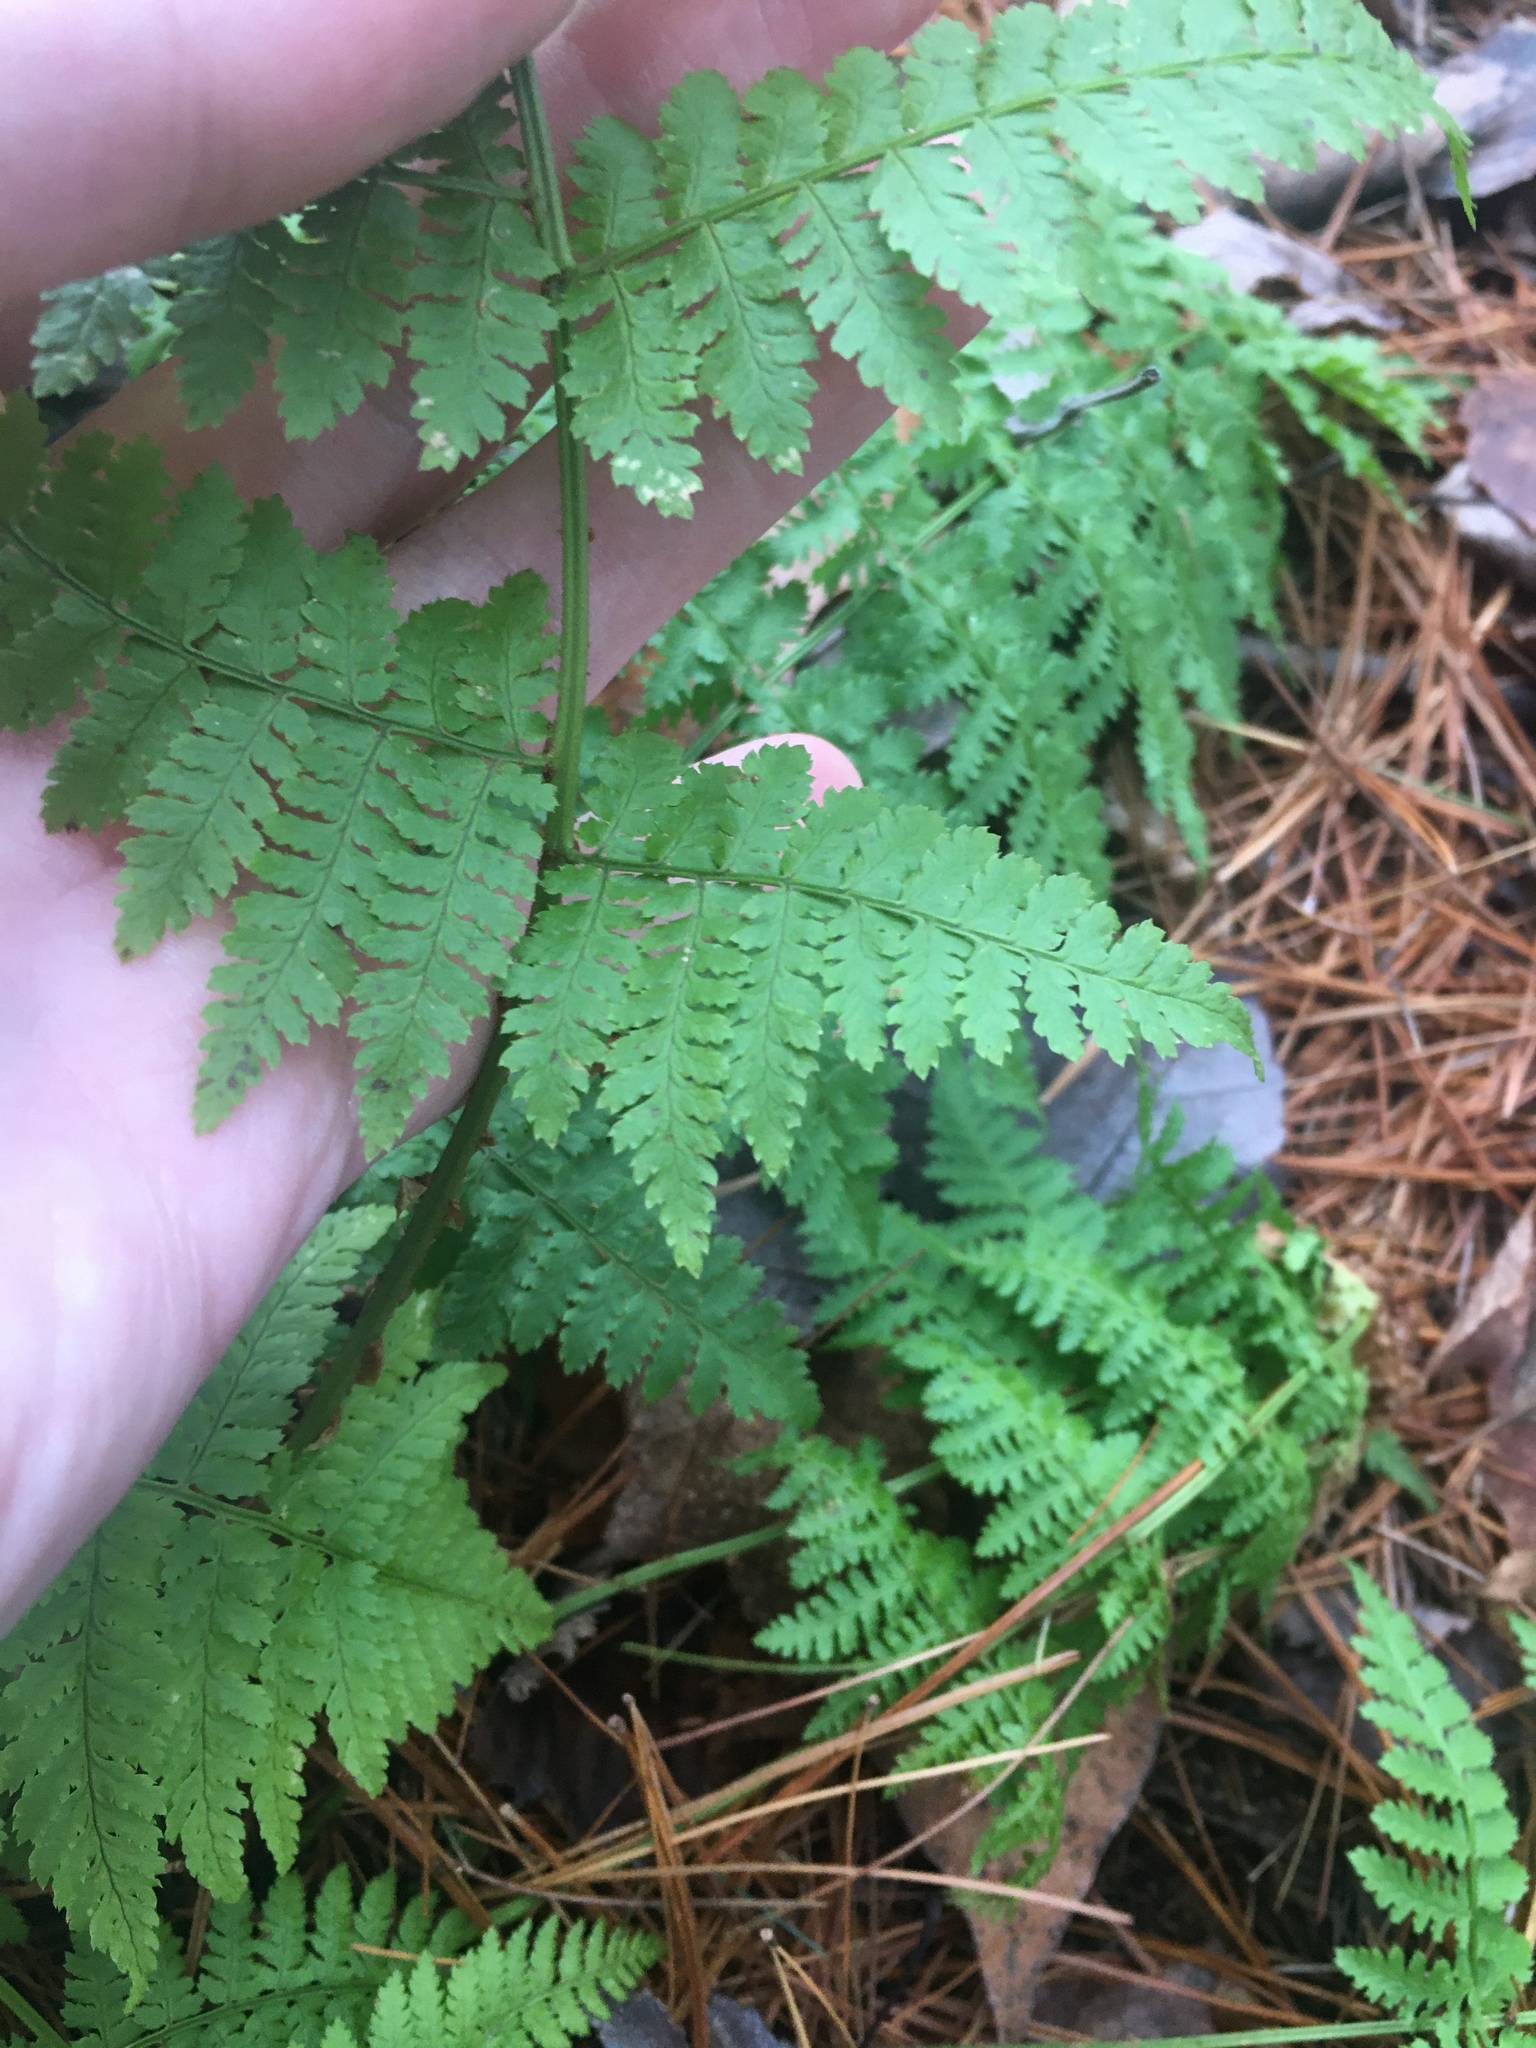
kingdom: Plantae
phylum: Tracheophyta
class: Polypodiopsida
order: Polypodiales
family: Dryopteridaceae
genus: Dryopteris
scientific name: Dryopteris intermedia
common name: Evergreen wood fern
